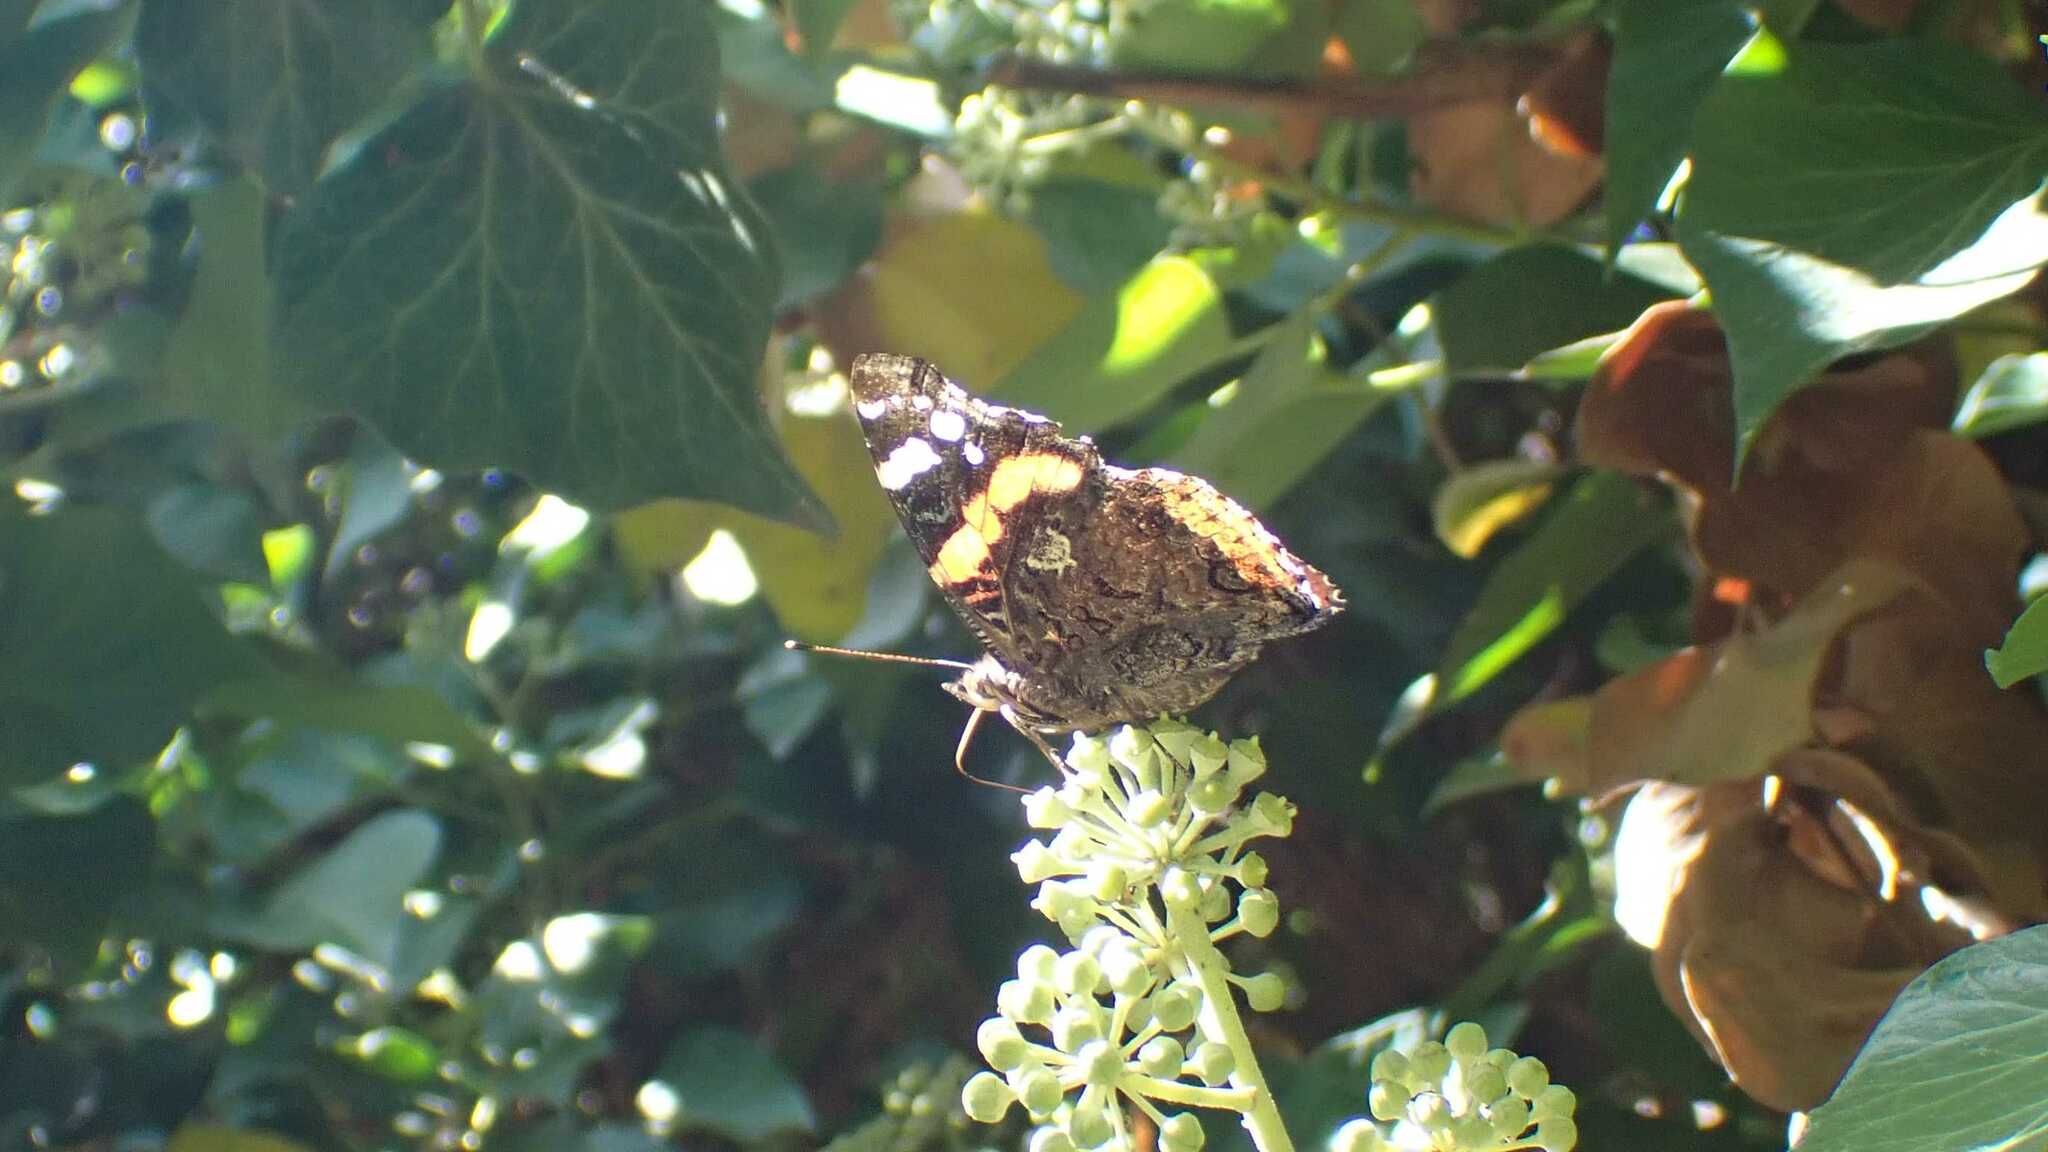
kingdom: Animalia
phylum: Arthropoda
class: Insecta
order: Lepidoptera
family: Nymphalidae
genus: Vanessa
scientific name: Vanessa atalanta
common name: Red admiral
